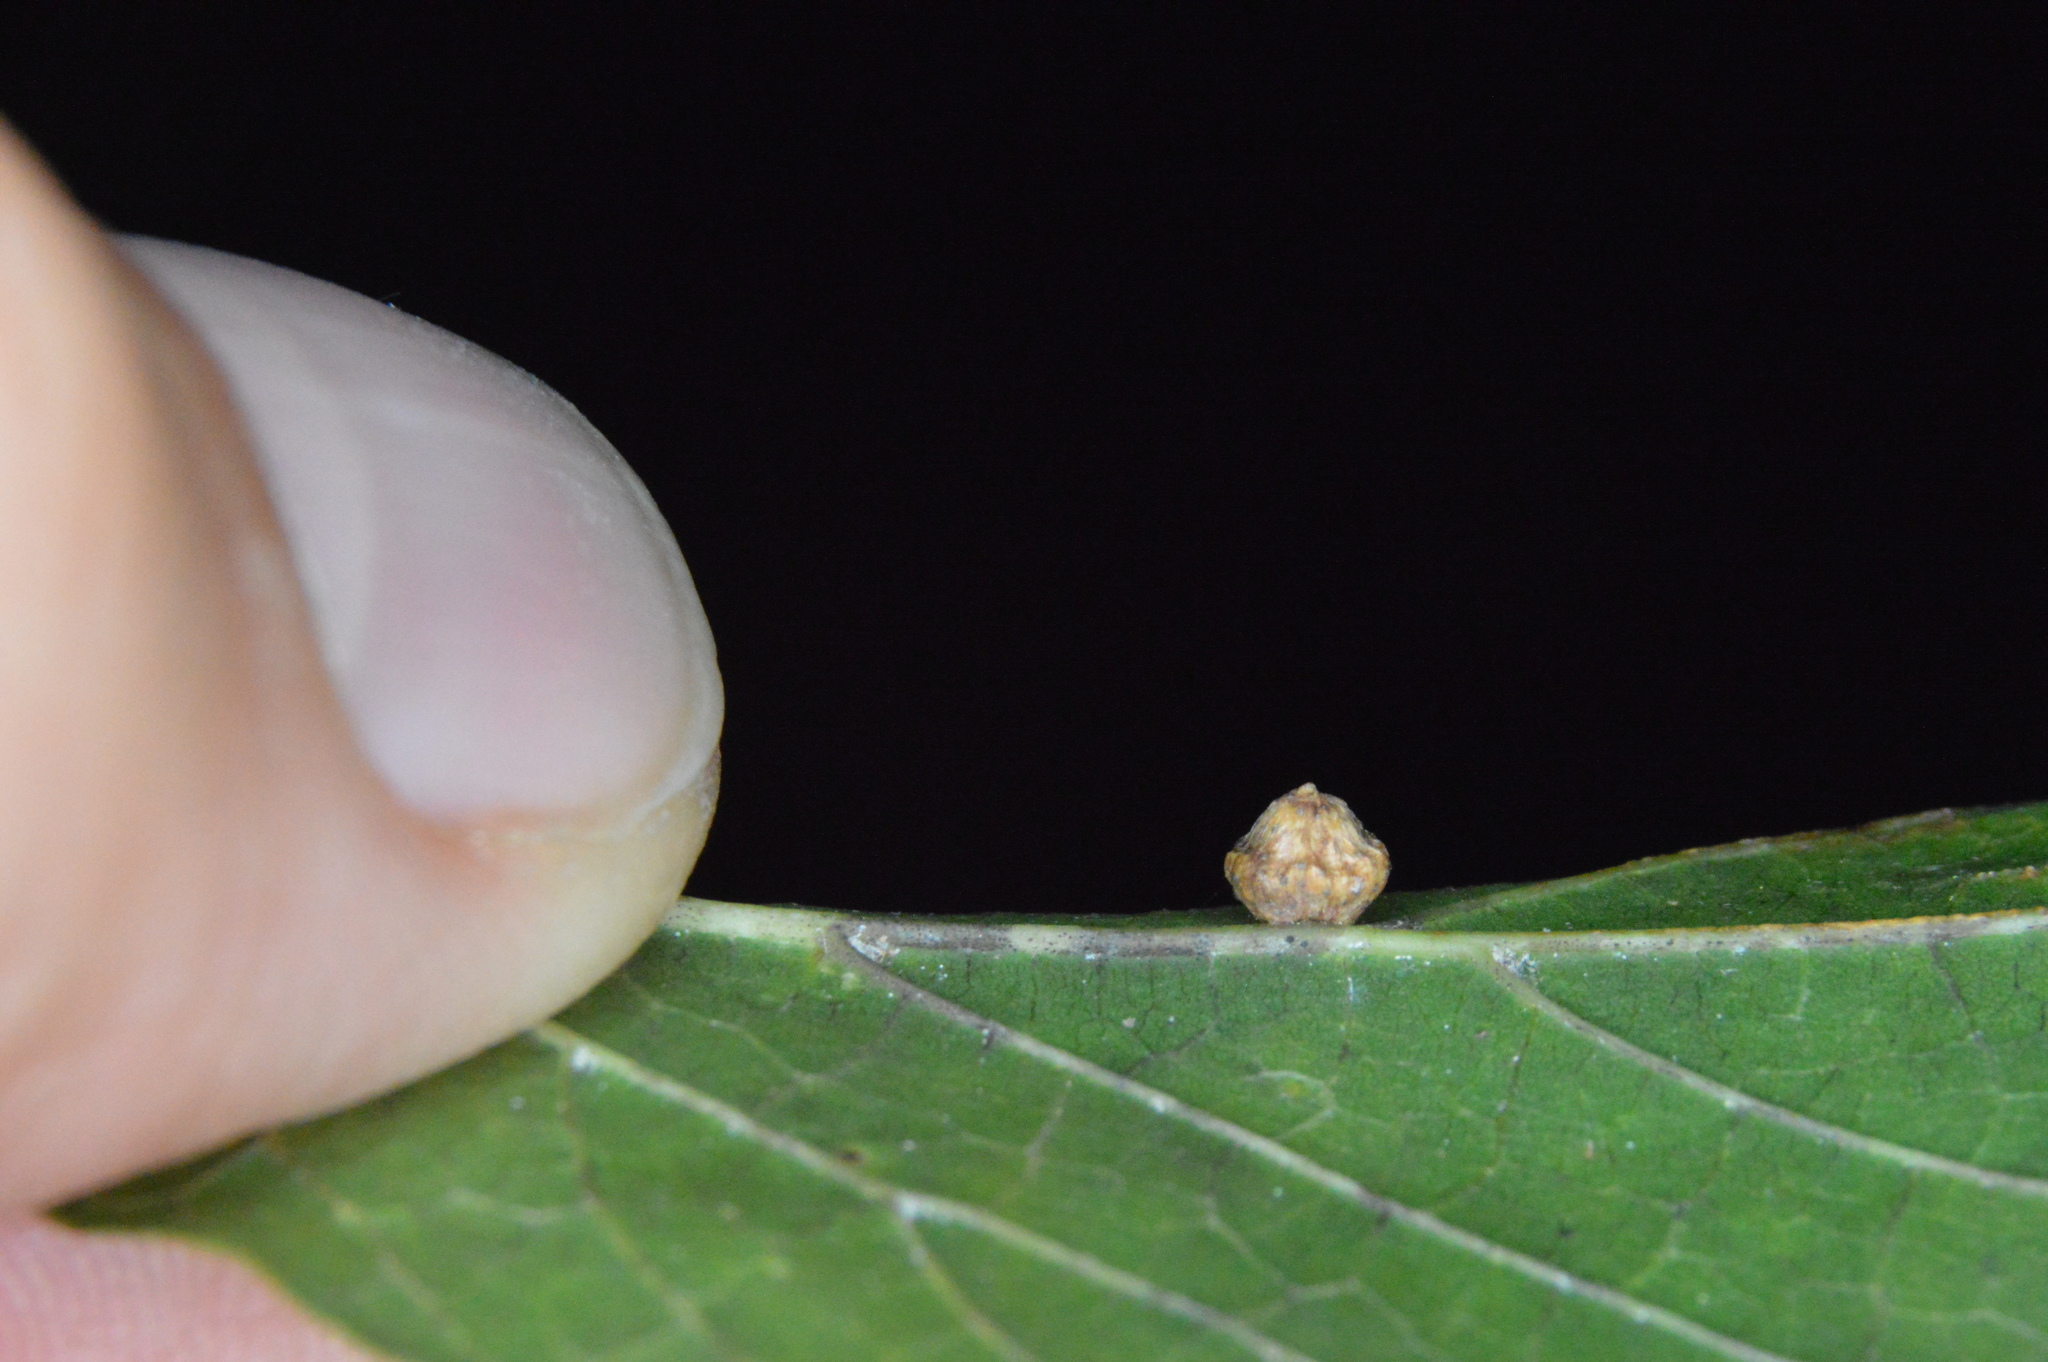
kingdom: Animalia
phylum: Arthropoda
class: Insecta
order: Diptera
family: Cecidomyiidae
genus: Celticecis
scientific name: Celticecis globosa
